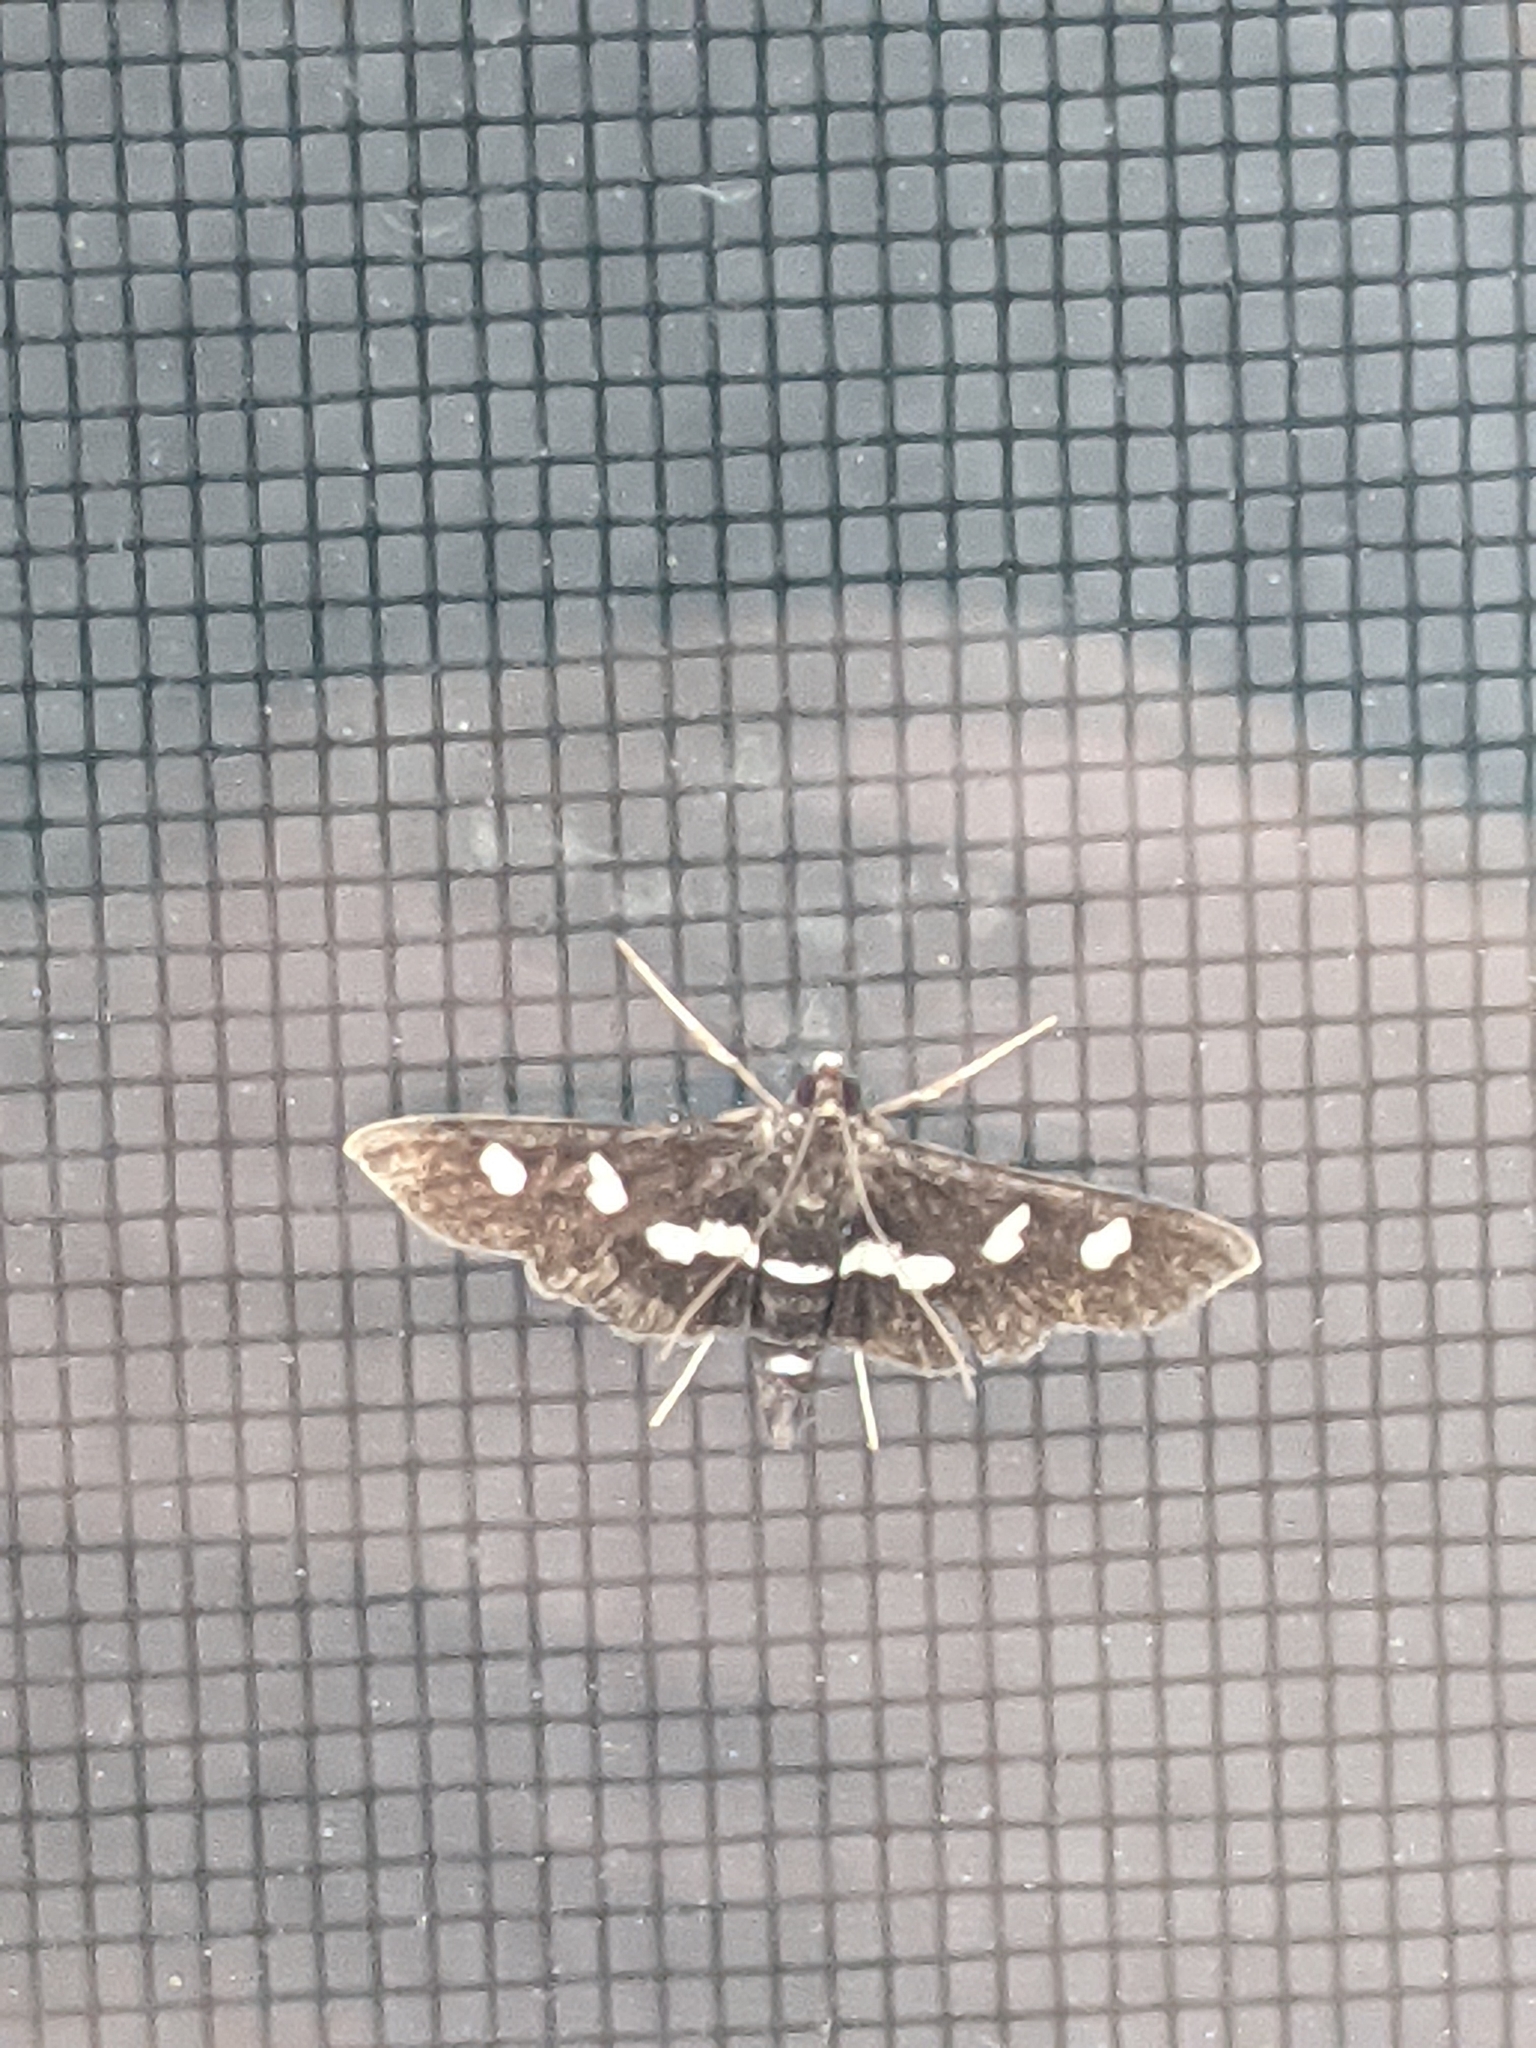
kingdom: Animalia
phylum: Arthropoda
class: Insecta
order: Lepidoptera
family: Crambidae
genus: Desmia
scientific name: Desmia funeralis
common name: Grape leaf folder moth
